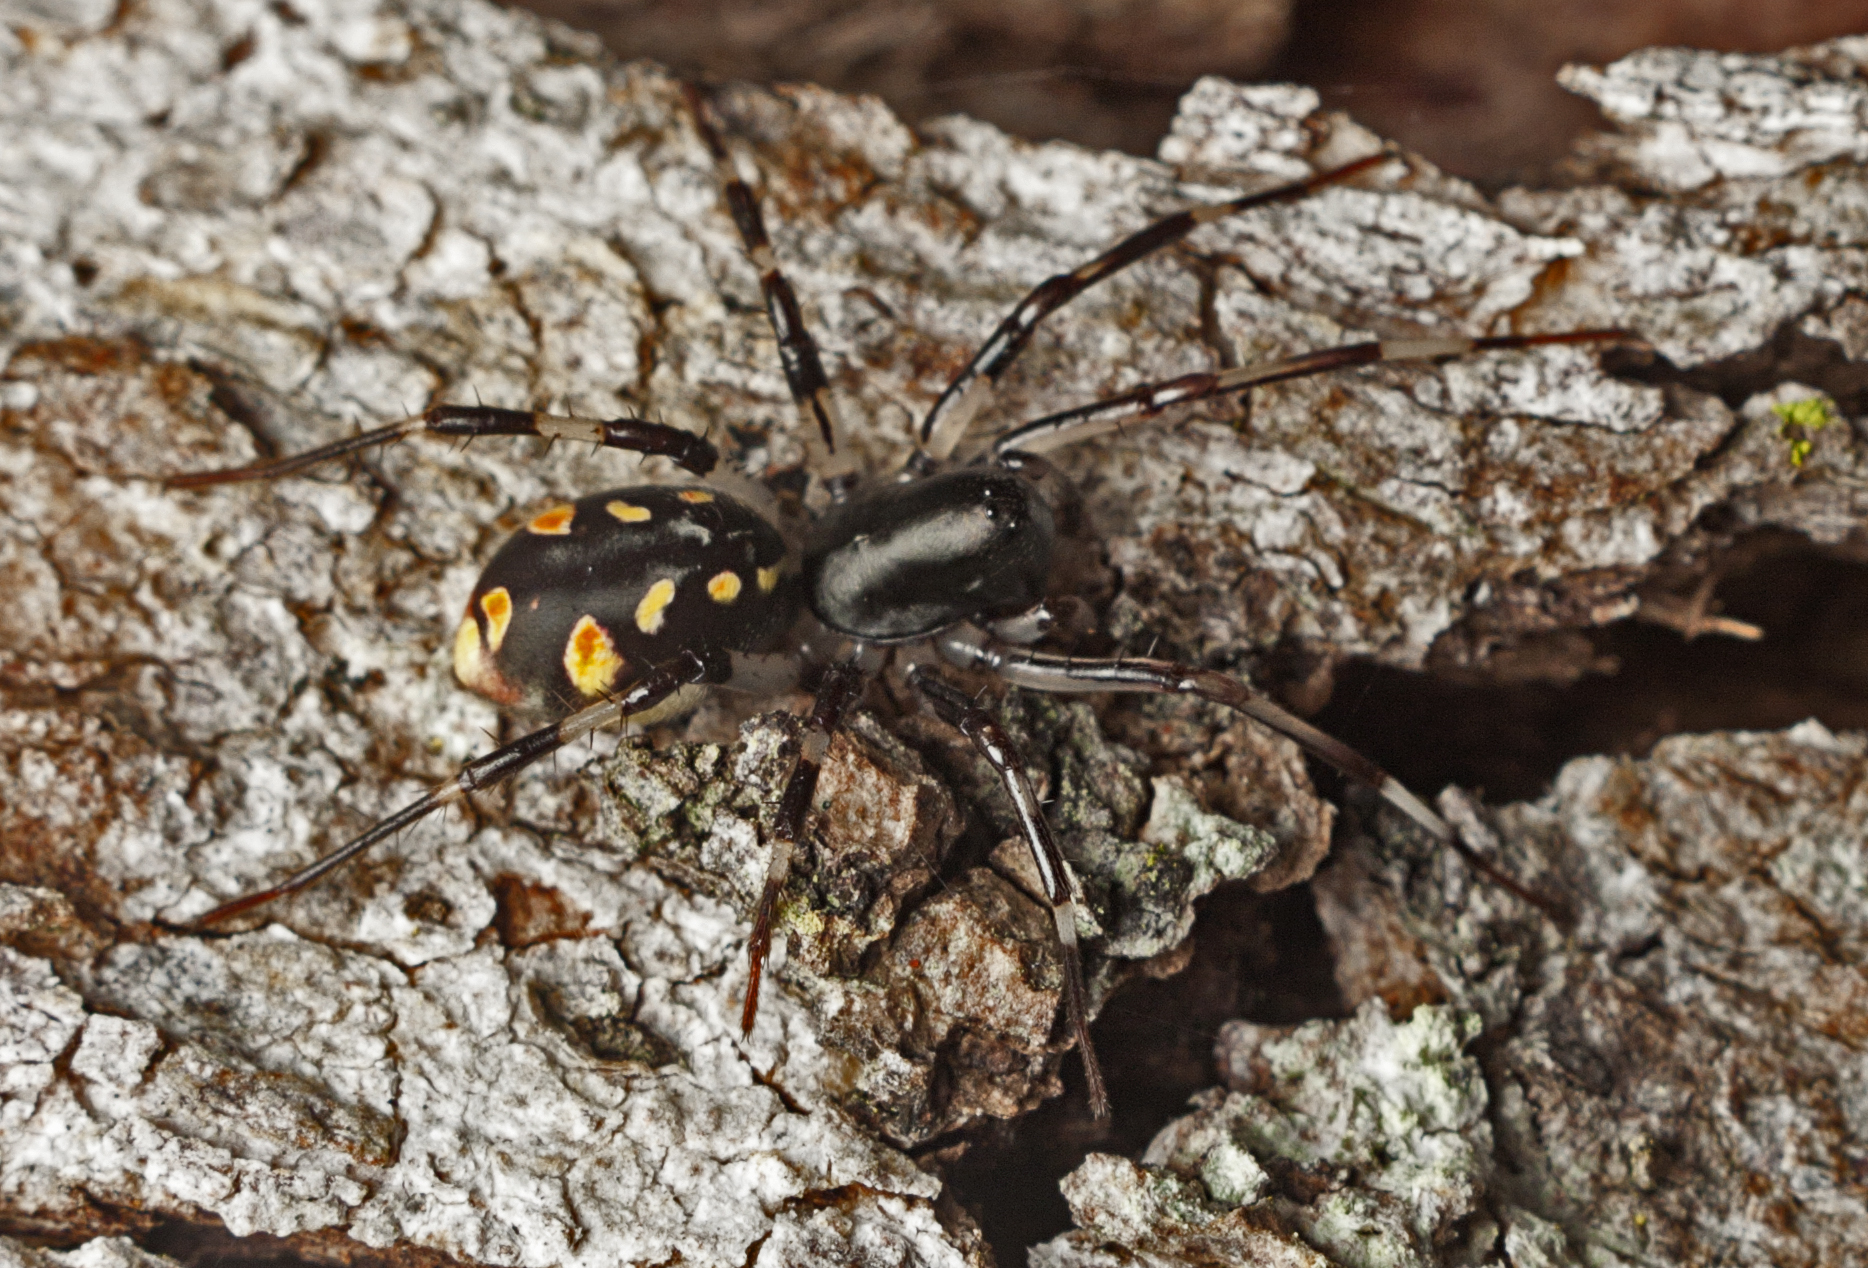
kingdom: Animalia
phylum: Arthropoda
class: Arachnida
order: Araneae
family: Zodariidae
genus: Subasteron
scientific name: Subasteron daviesae
